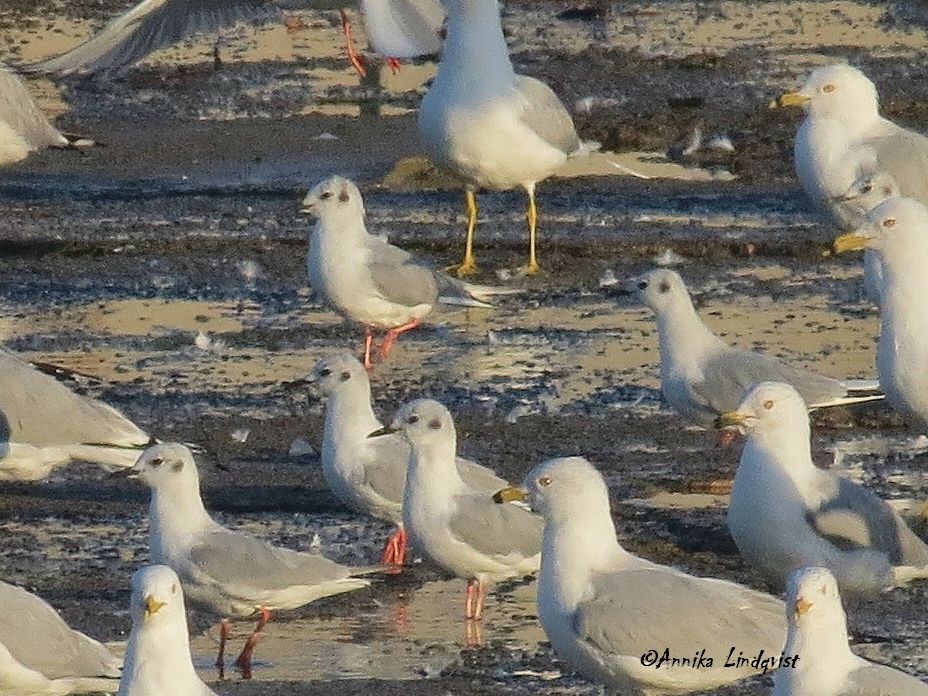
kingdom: Animalia
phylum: Chordata
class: Aves
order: Charadriiformes
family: Laridae
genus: Chroicocephalus
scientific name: Chroicocephalus philadelphia
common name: Bonaparte's gull
